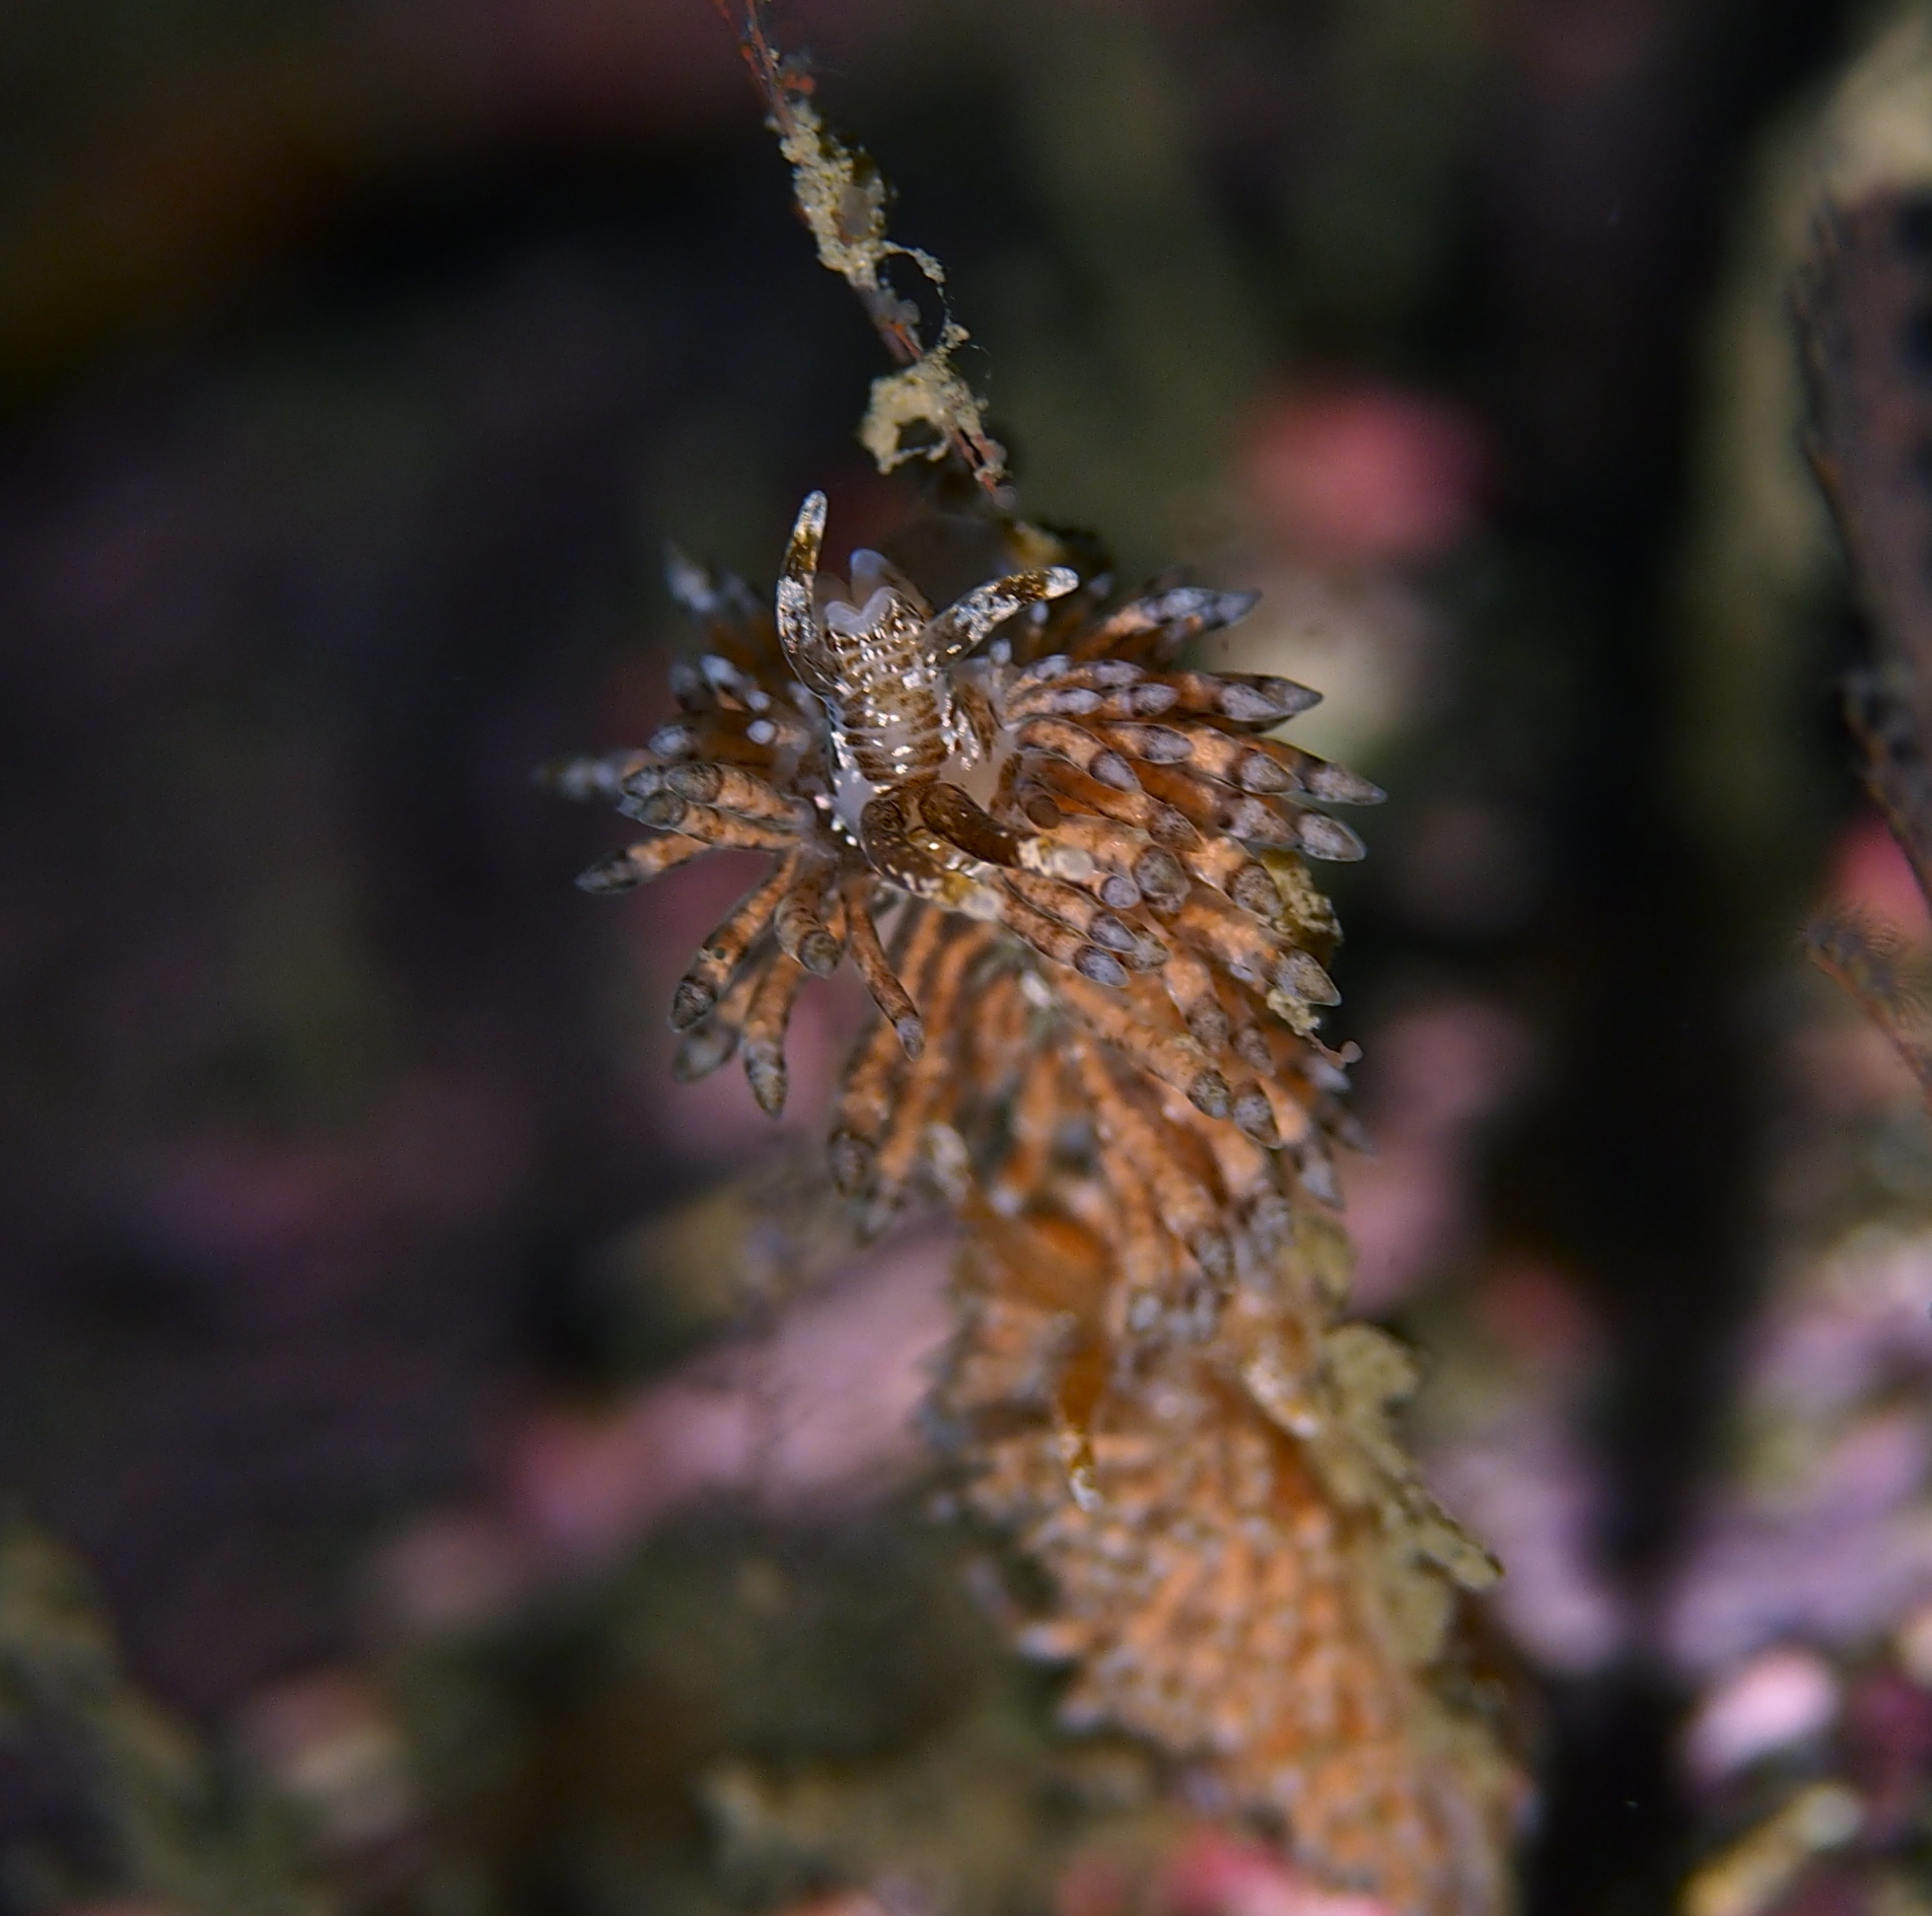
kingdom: Animalia
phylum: Mollusca
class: Gastropoda
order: Nudibranchia
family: Eubranchidae
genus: Eubranchus
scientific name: Eubranchus vittatus
